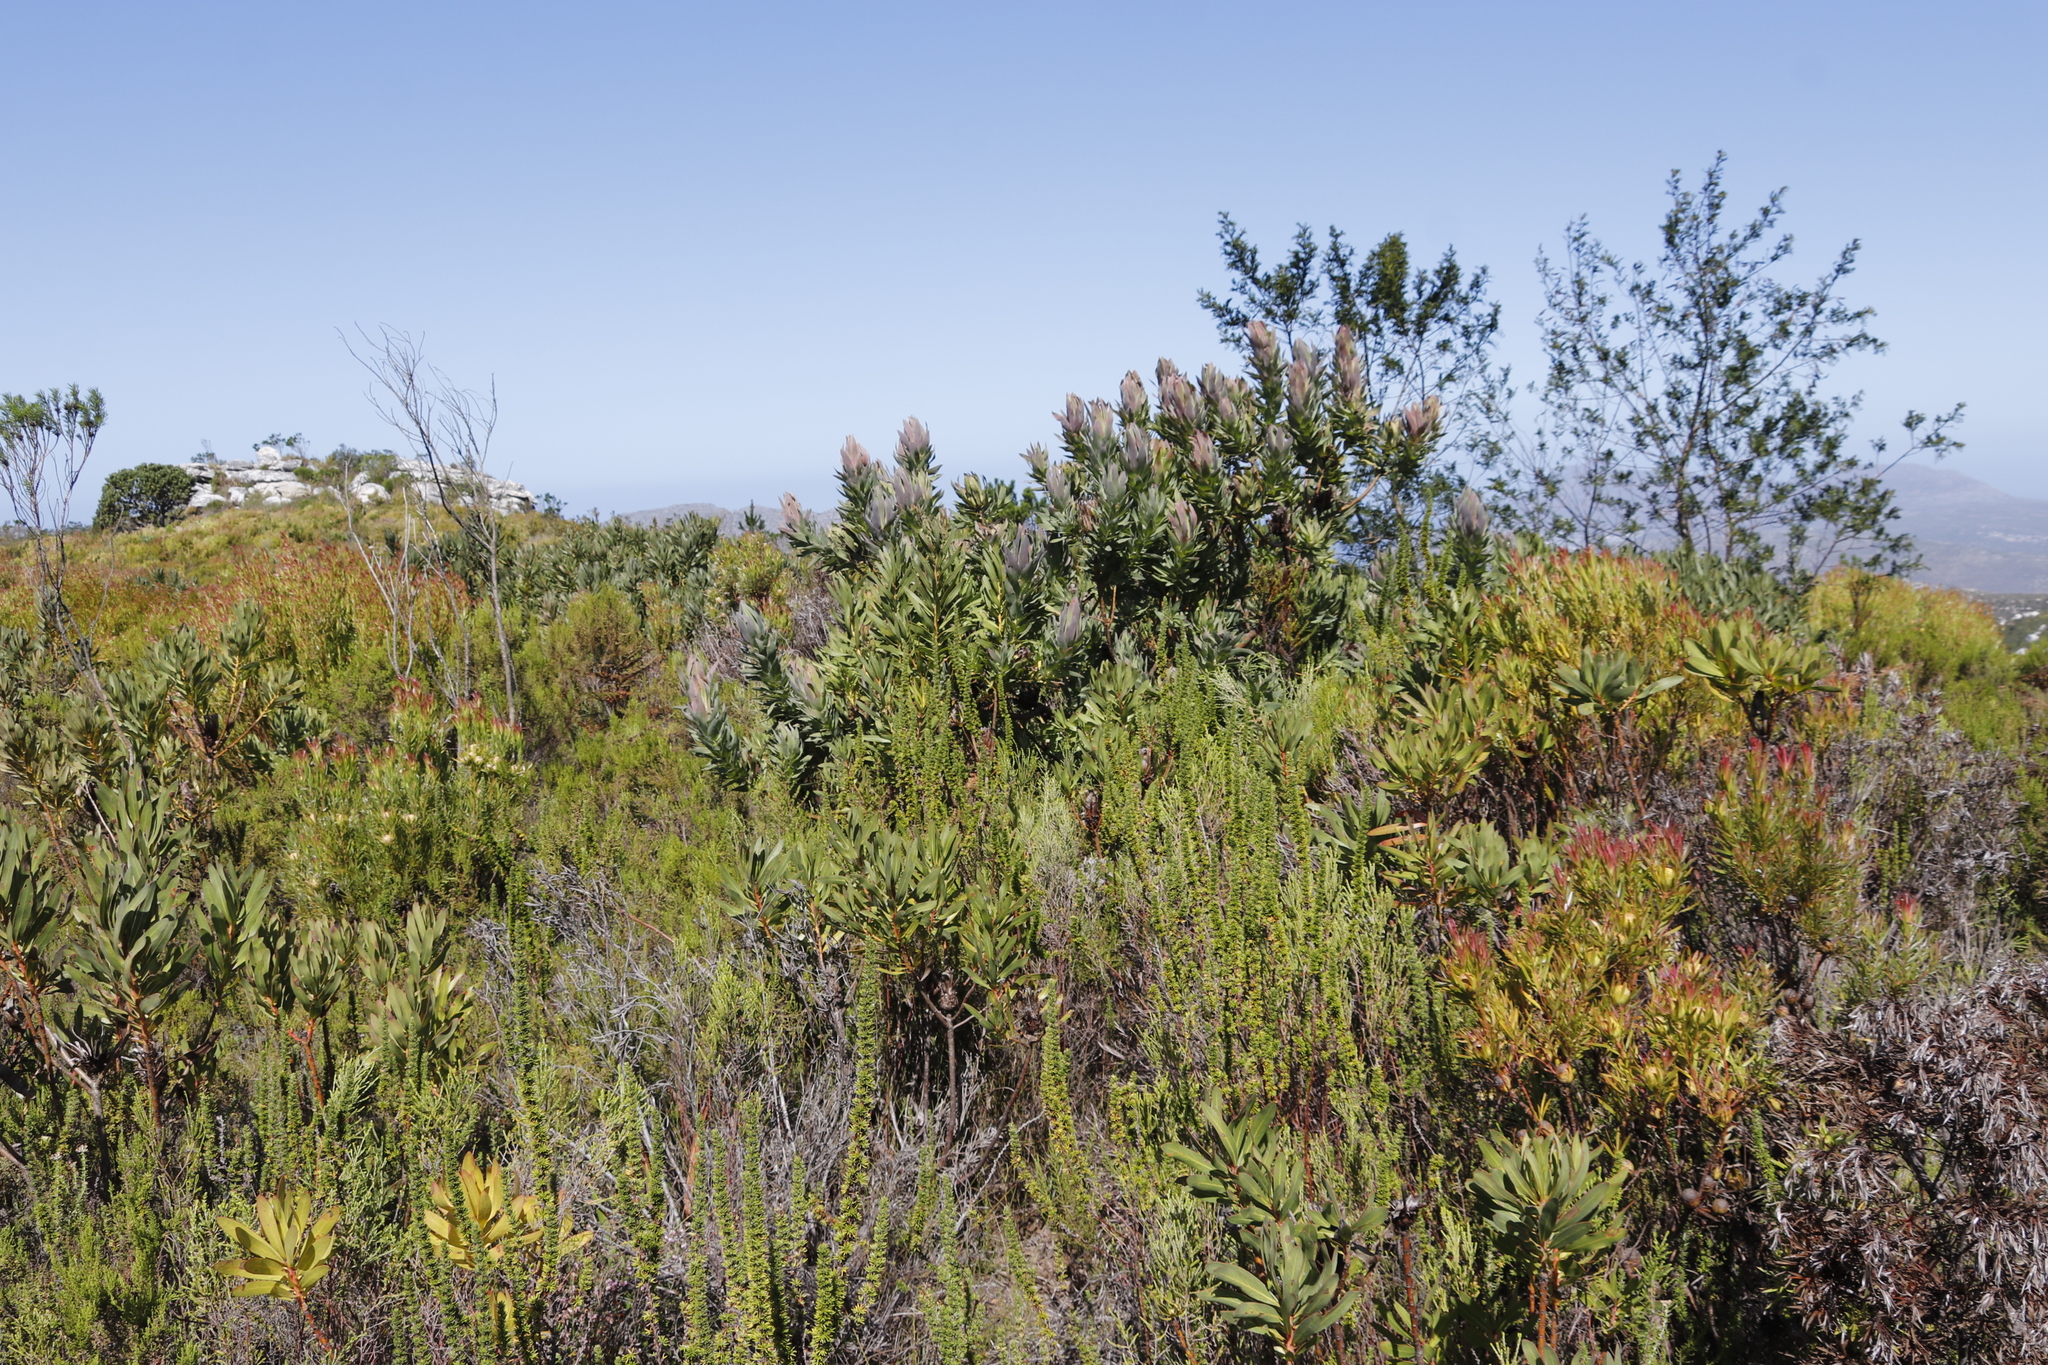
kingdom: Plantae
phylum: Tracheophyta
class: Magnoliopsida
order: Proteales
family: Proteaceae
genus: Protea
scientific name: Protea coronata
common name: Green sugarbush
